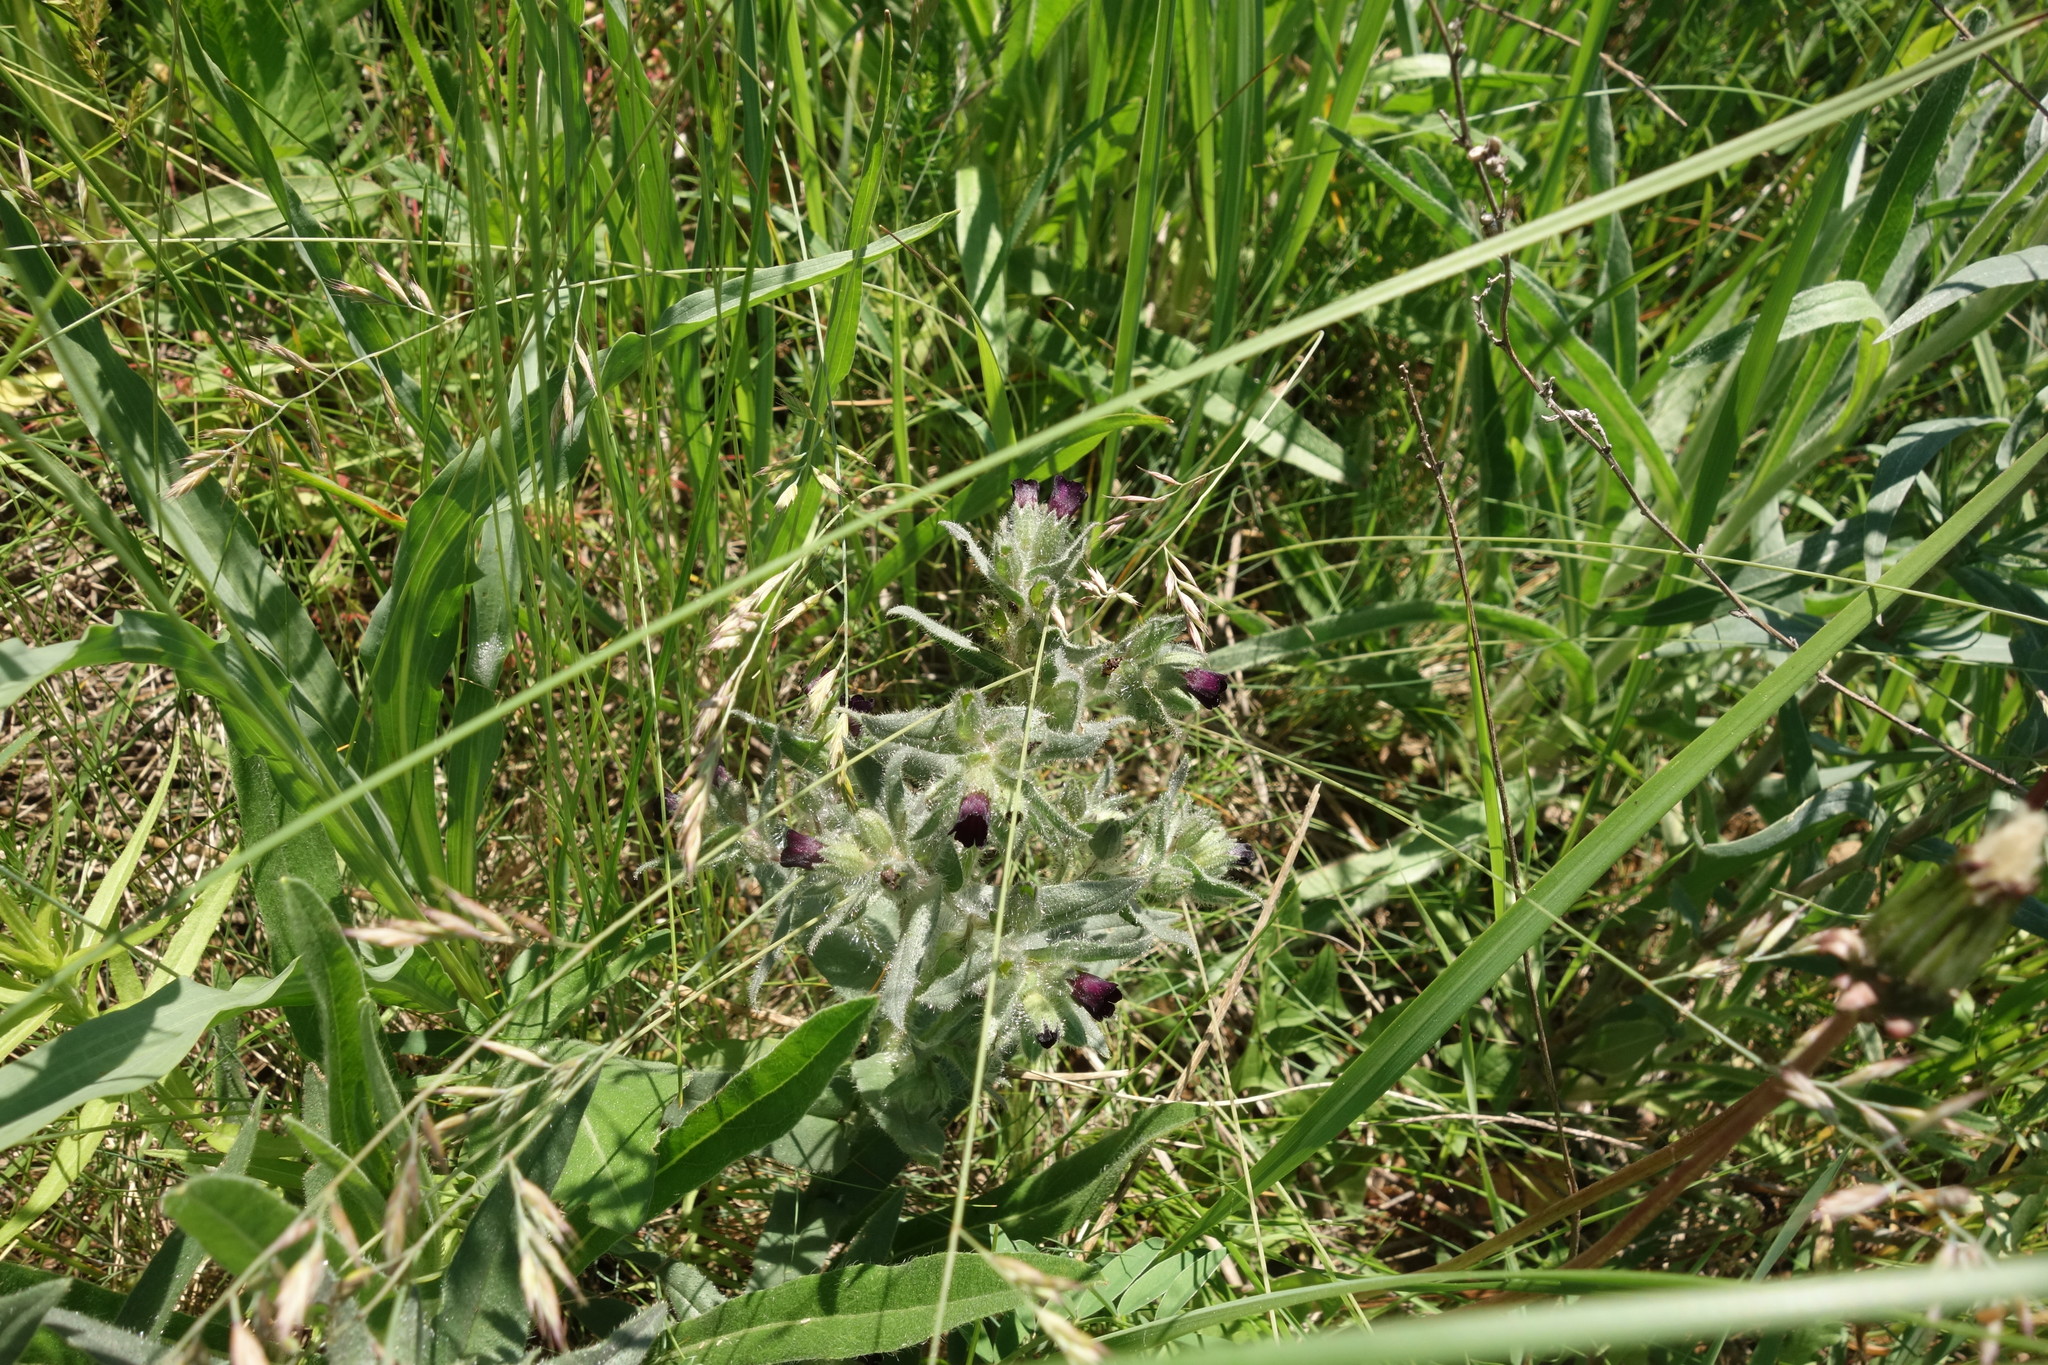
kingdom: Plantae
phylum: Tracheophyta
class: Magnoliopsida
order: Boraginales
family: Boraginaceae
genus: Nonea
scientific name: Nonea pulla
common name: Brown nonea
